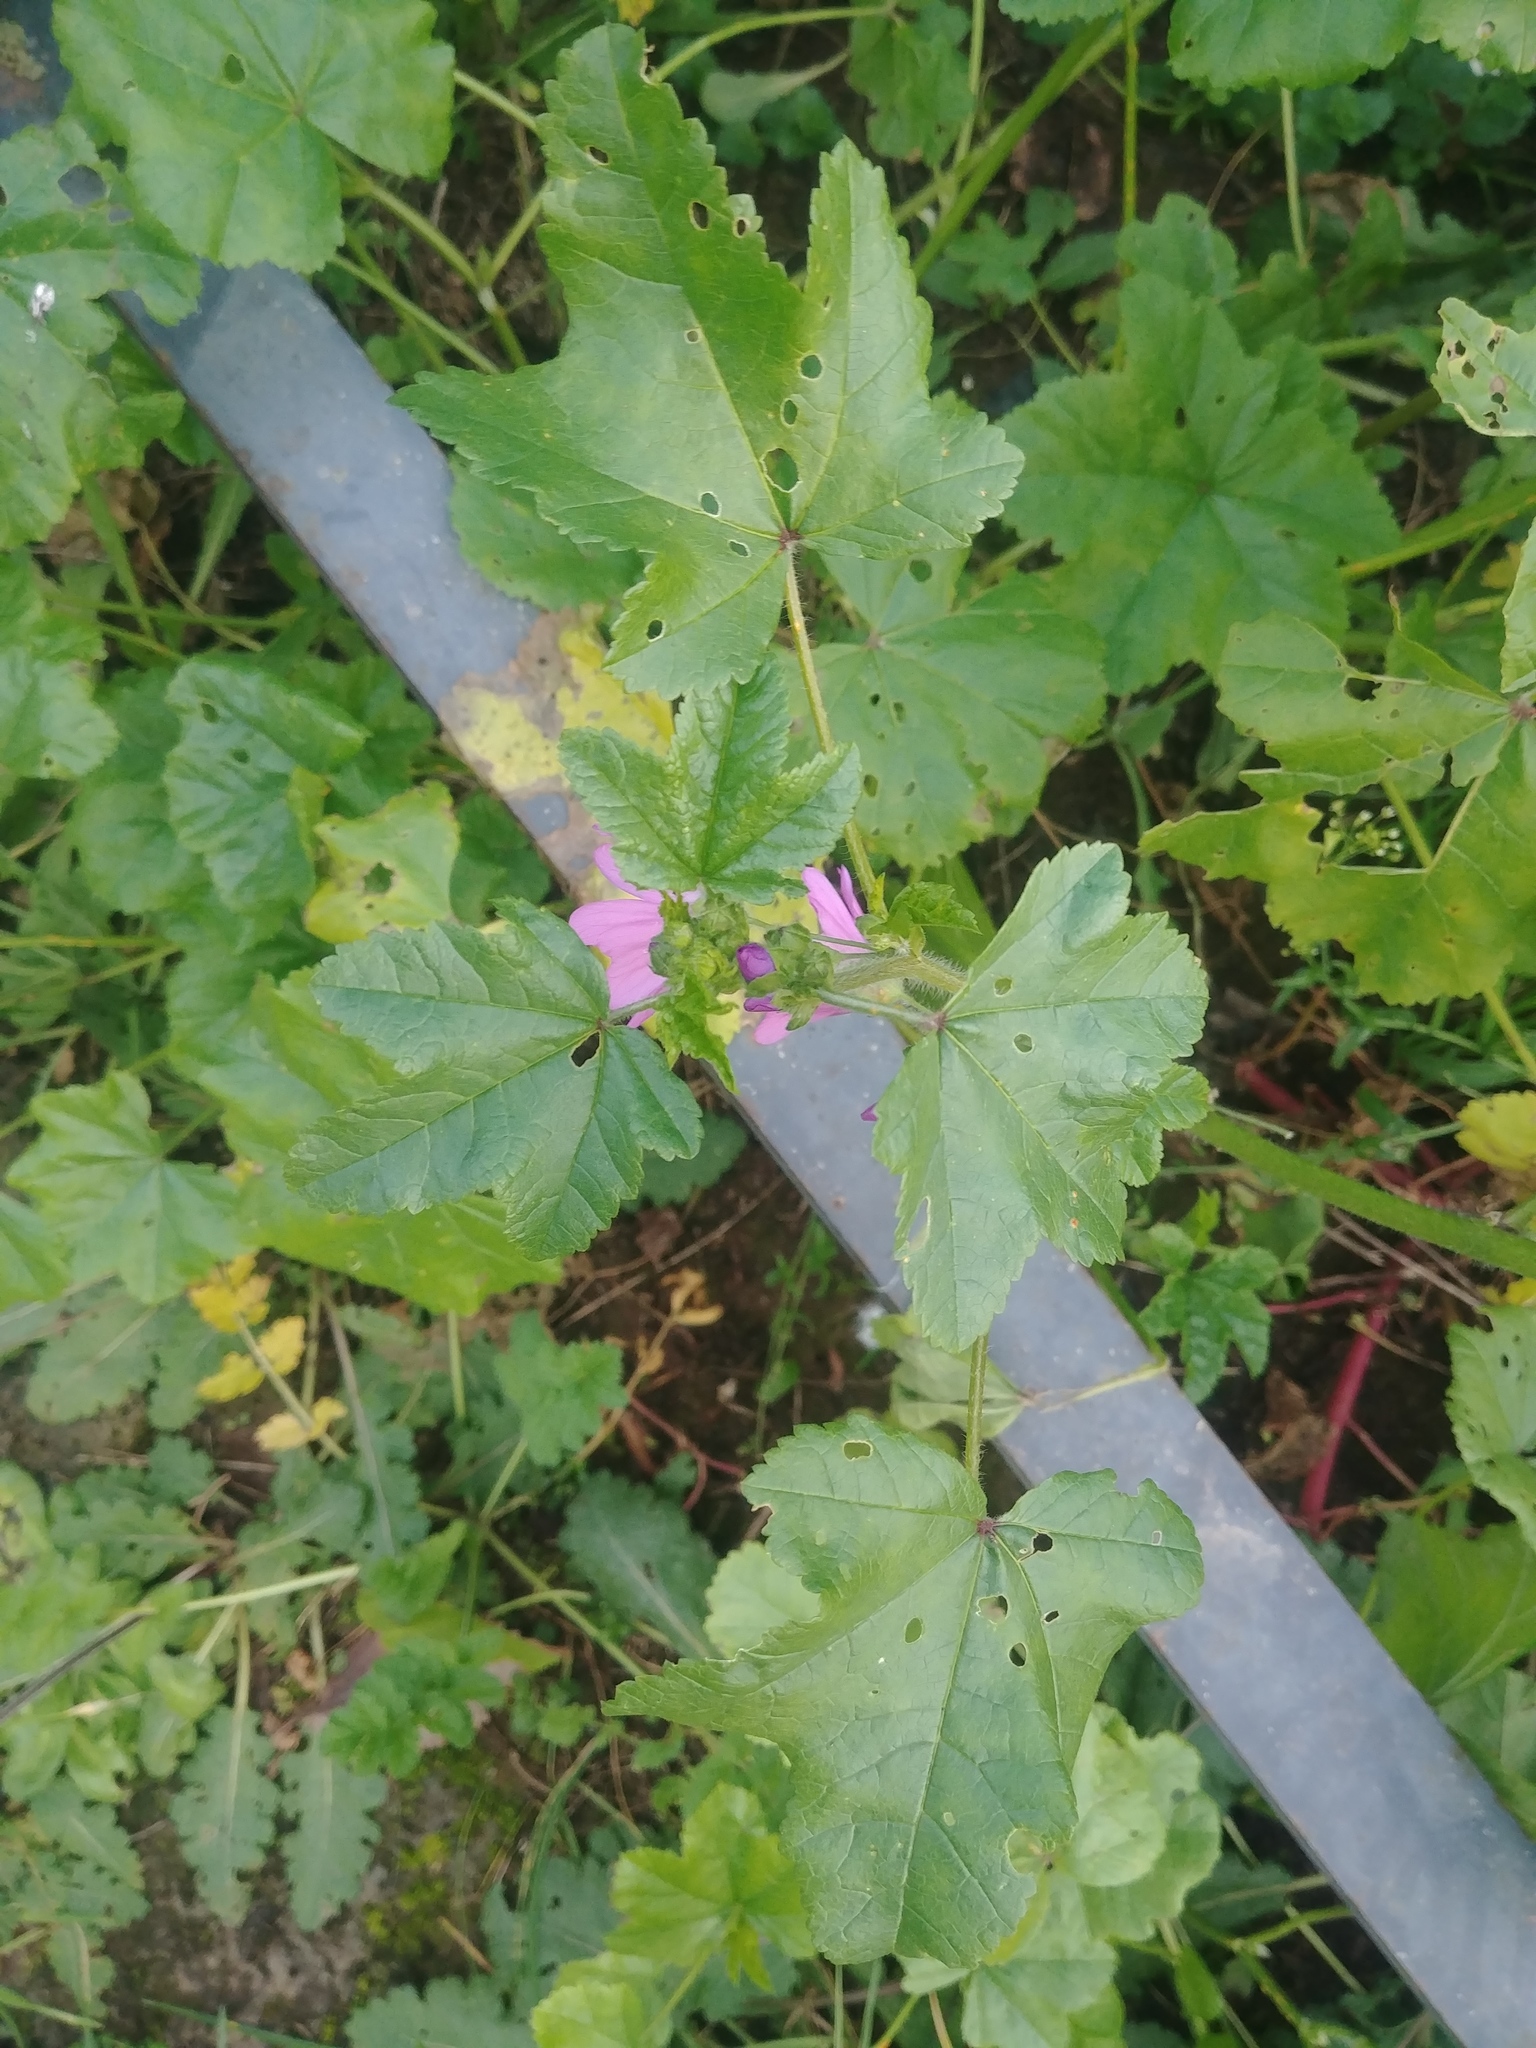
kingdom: Plantae
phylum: Tracheophyta
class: Magnoliopsida
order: Malvales
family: Malvaceae
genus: Malva
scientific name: Malva sylvestris
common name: Common mallow
